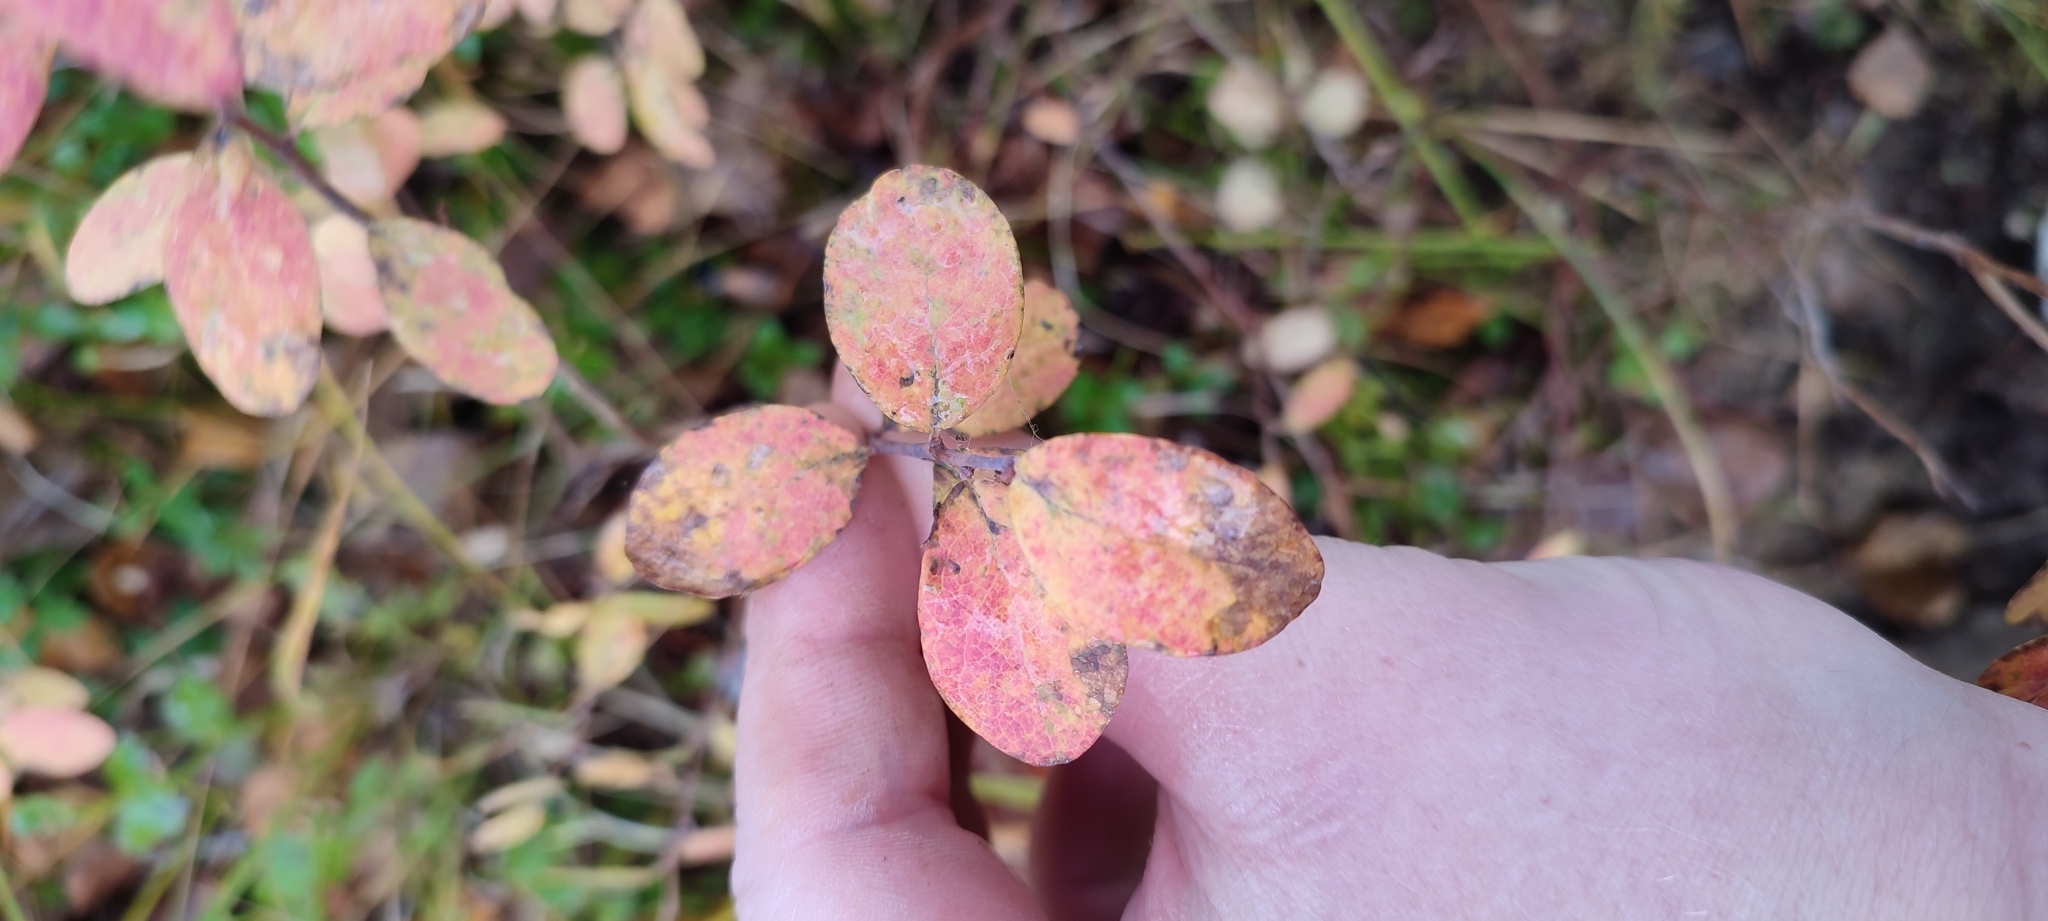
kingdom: Plantae
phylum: Tracheophyta
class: Magnoliopsida
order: Ericales
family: Ericaceae
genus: Vaccinium
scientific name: Vaccinium uliginosum
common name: Bog bilberry
